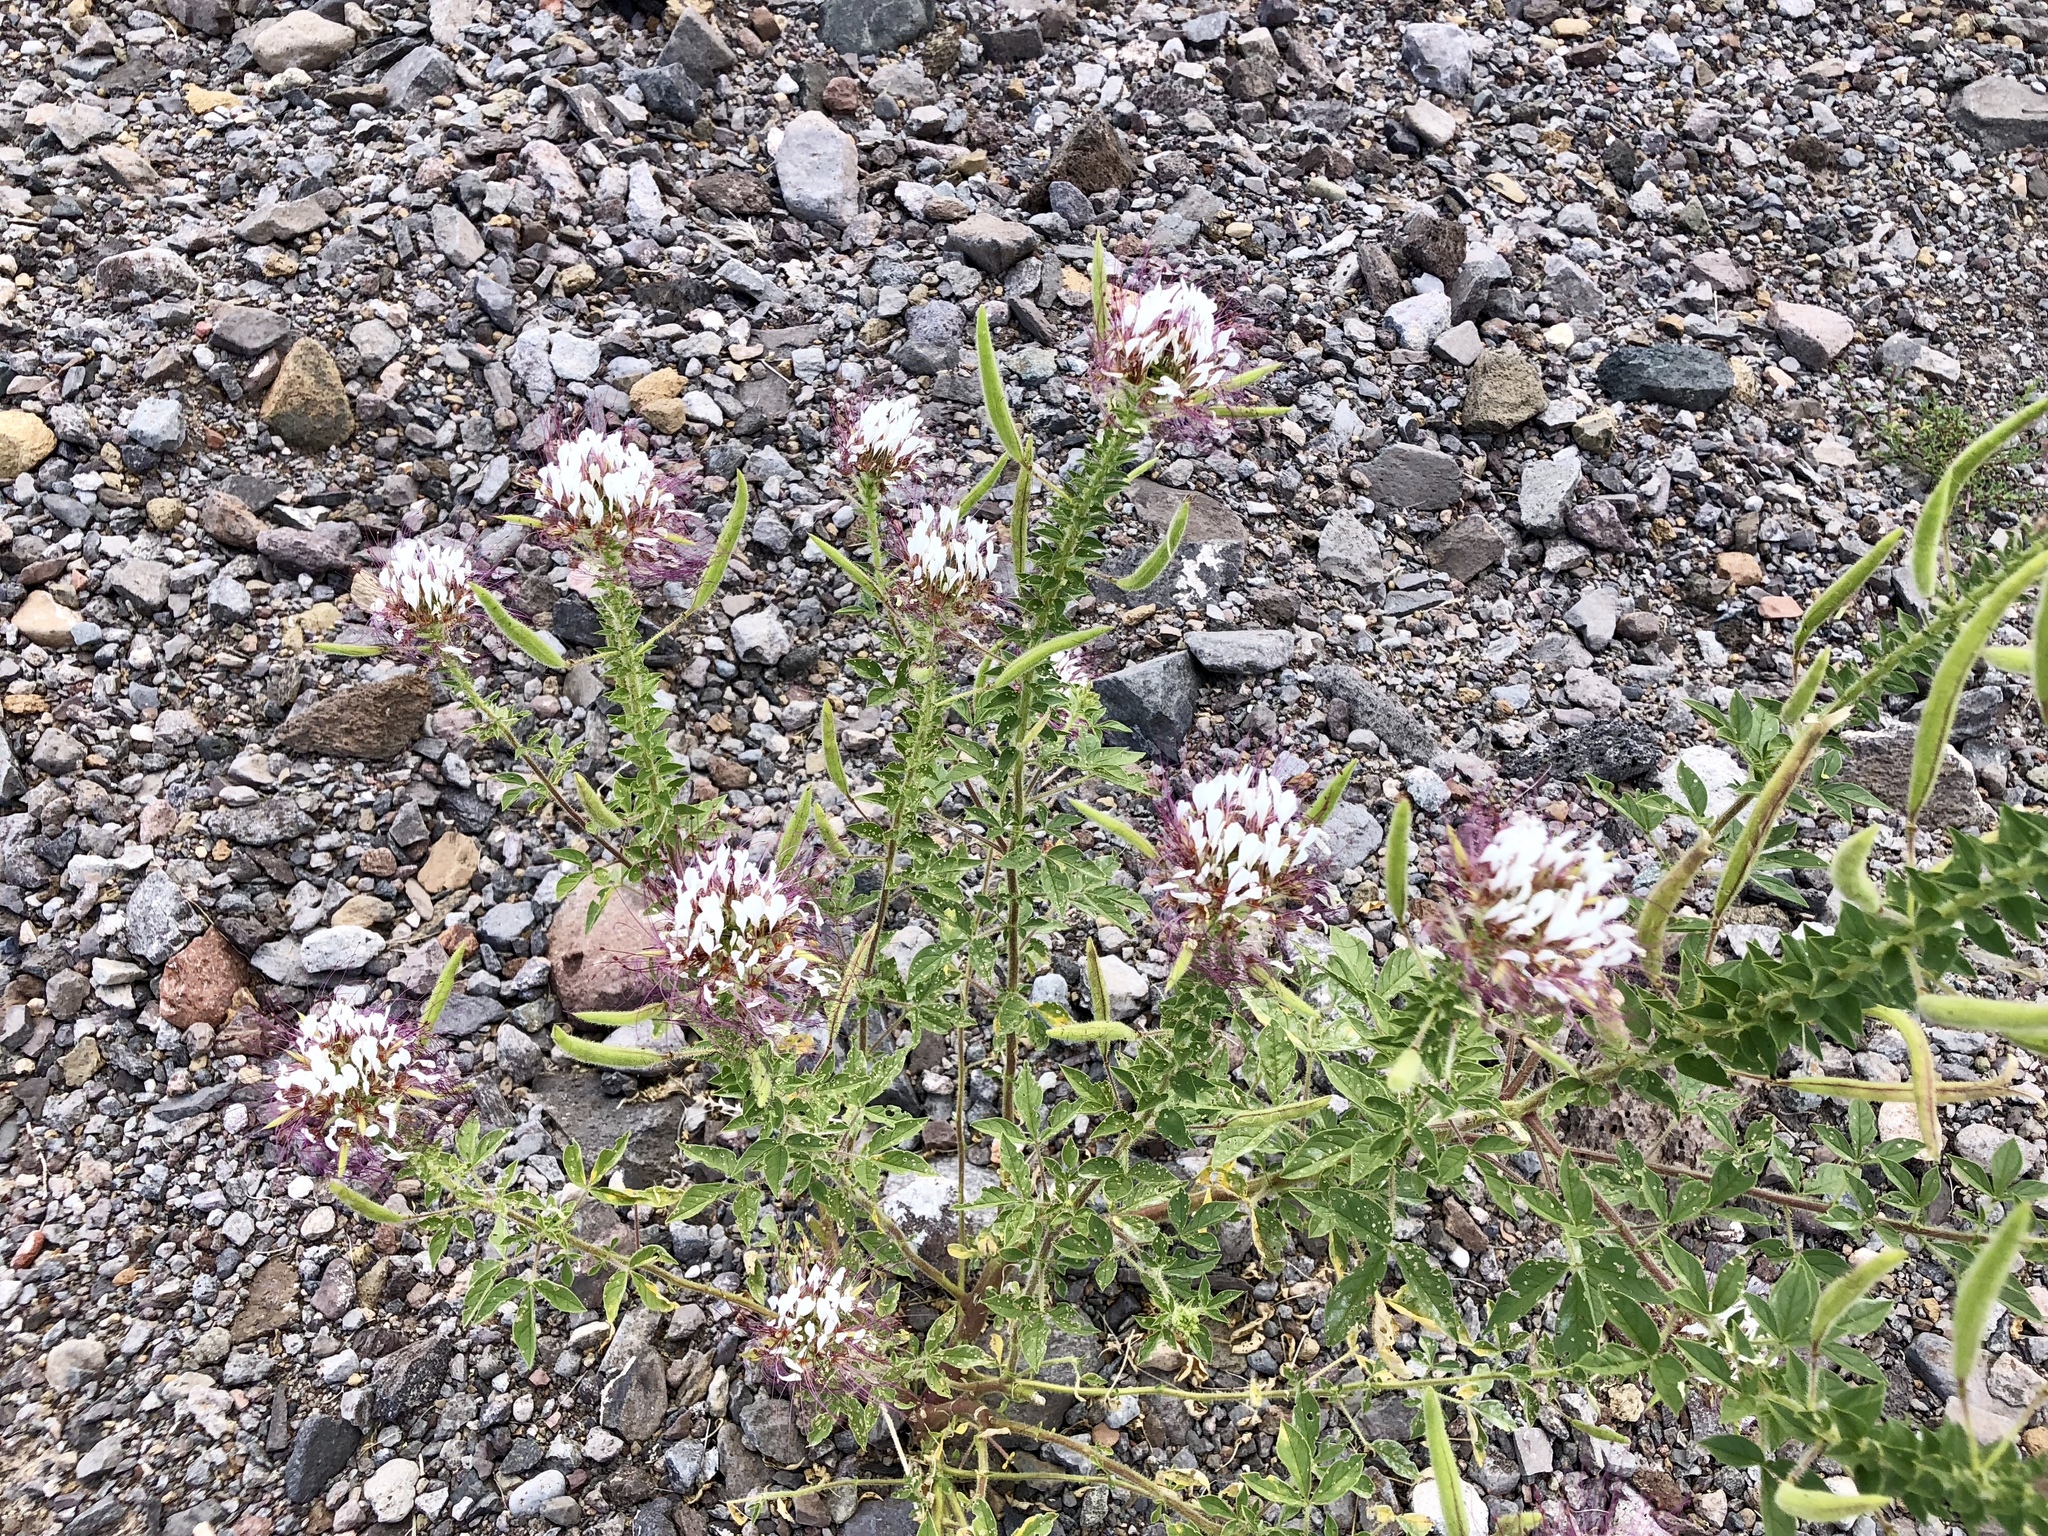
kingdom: Plantae
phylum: Tracheophyta
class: Magnoliopsida
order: Brassicales
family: Cleomaceae
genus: Polanisia
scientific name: Polanisia dodecandra
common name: Clammyweed
